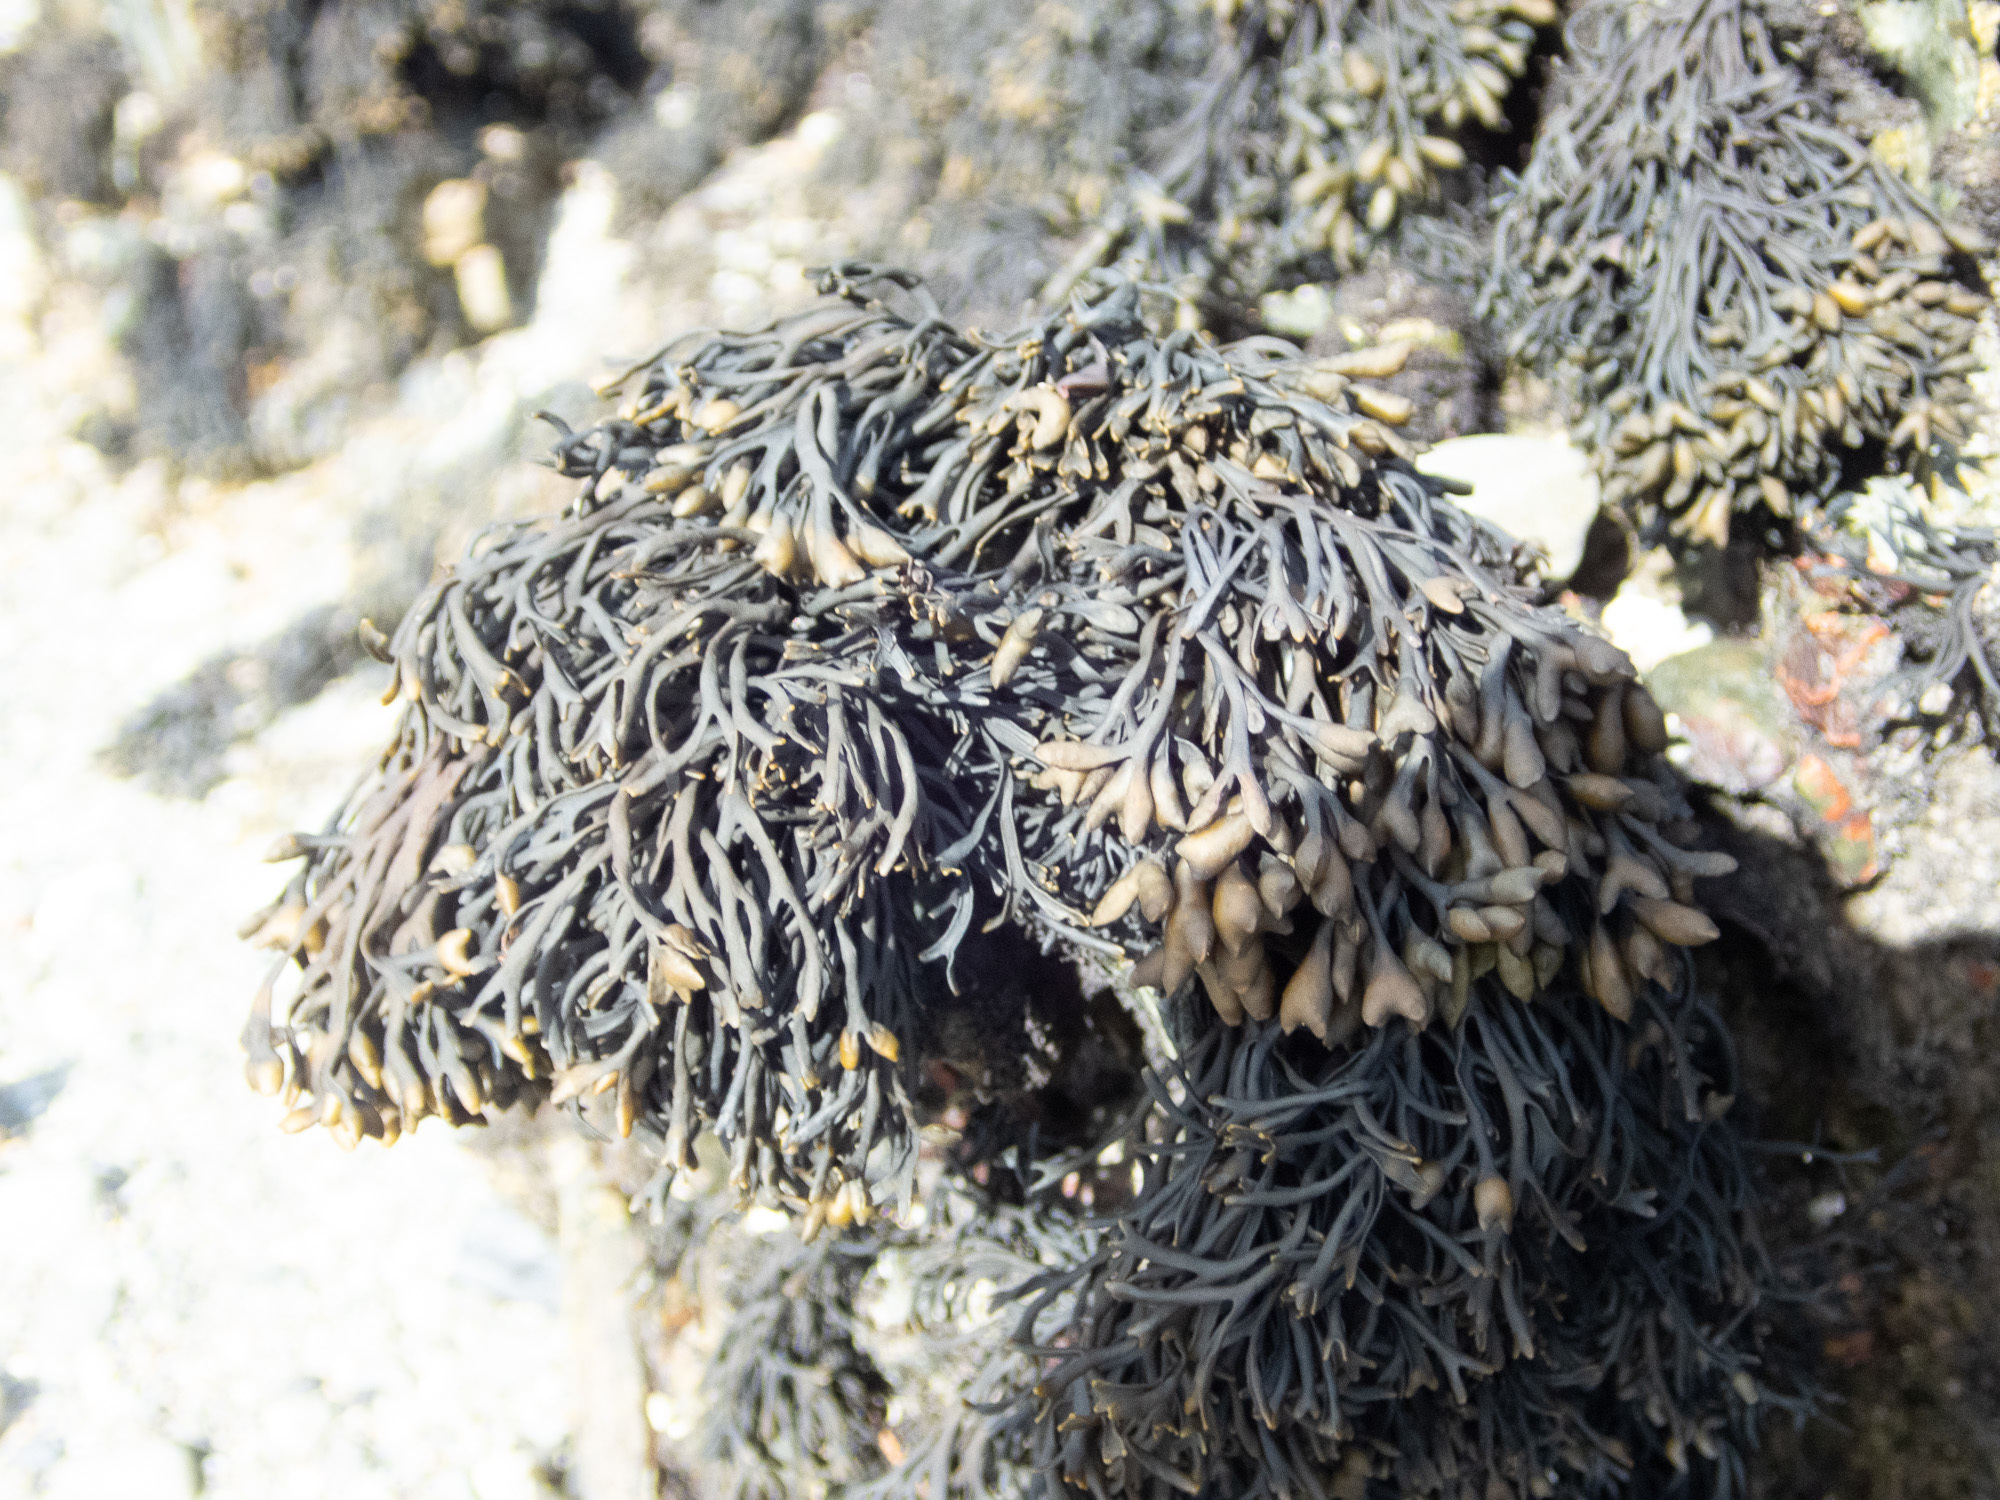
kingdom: Chromista
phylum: Ochrophyta
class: Phaeophyceae
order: Fucales
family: Fucaceae
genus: Pelvetia
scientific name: Pelvetia canaliculata
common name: Channelled wrack
